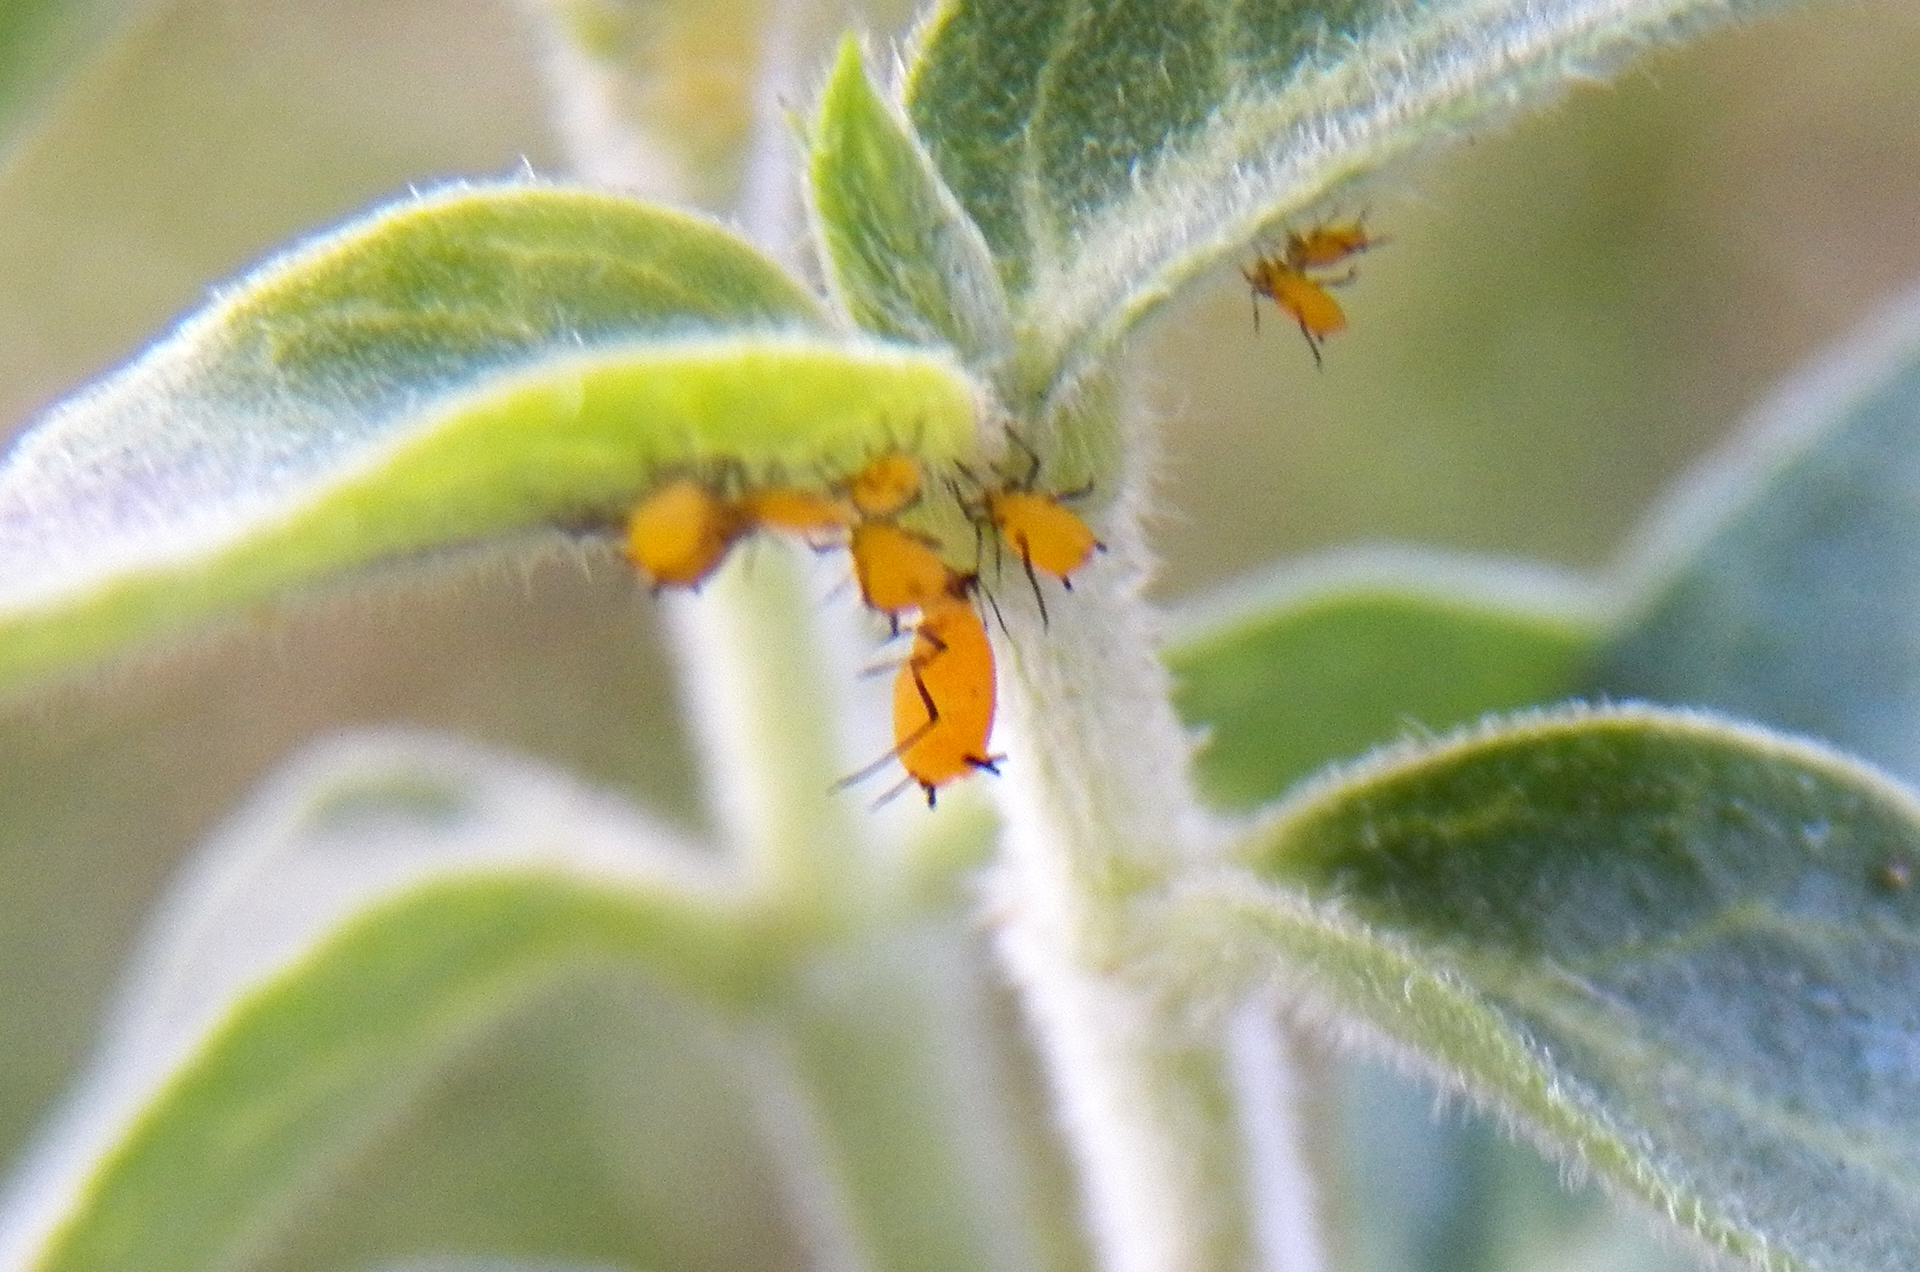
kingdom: Animalia
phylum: Arthropoda
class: Insecta
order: Hemiptera
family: Aphididae
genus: Aphis
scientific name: Aphis nerii
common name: Oleander aphid
